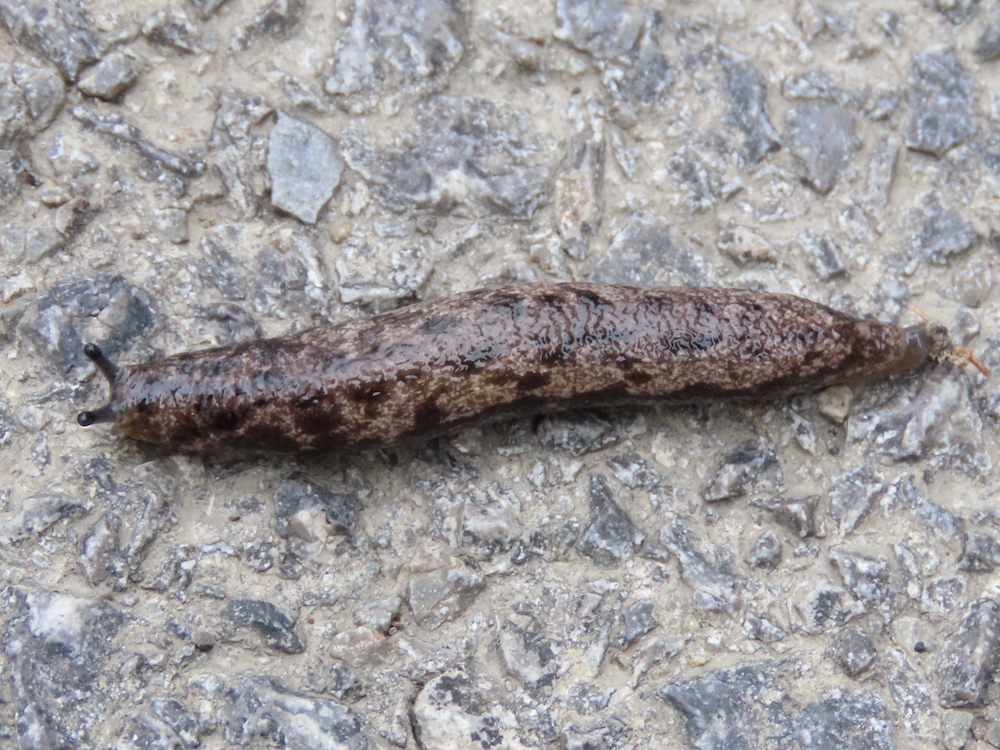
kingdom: Animalia
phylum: Mollusca
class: Gastropoda
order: Stylommatophora
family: Philomycidae
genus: Megapallifera
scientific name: Megapallifera mutabilis
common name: Changeable mantleslug
